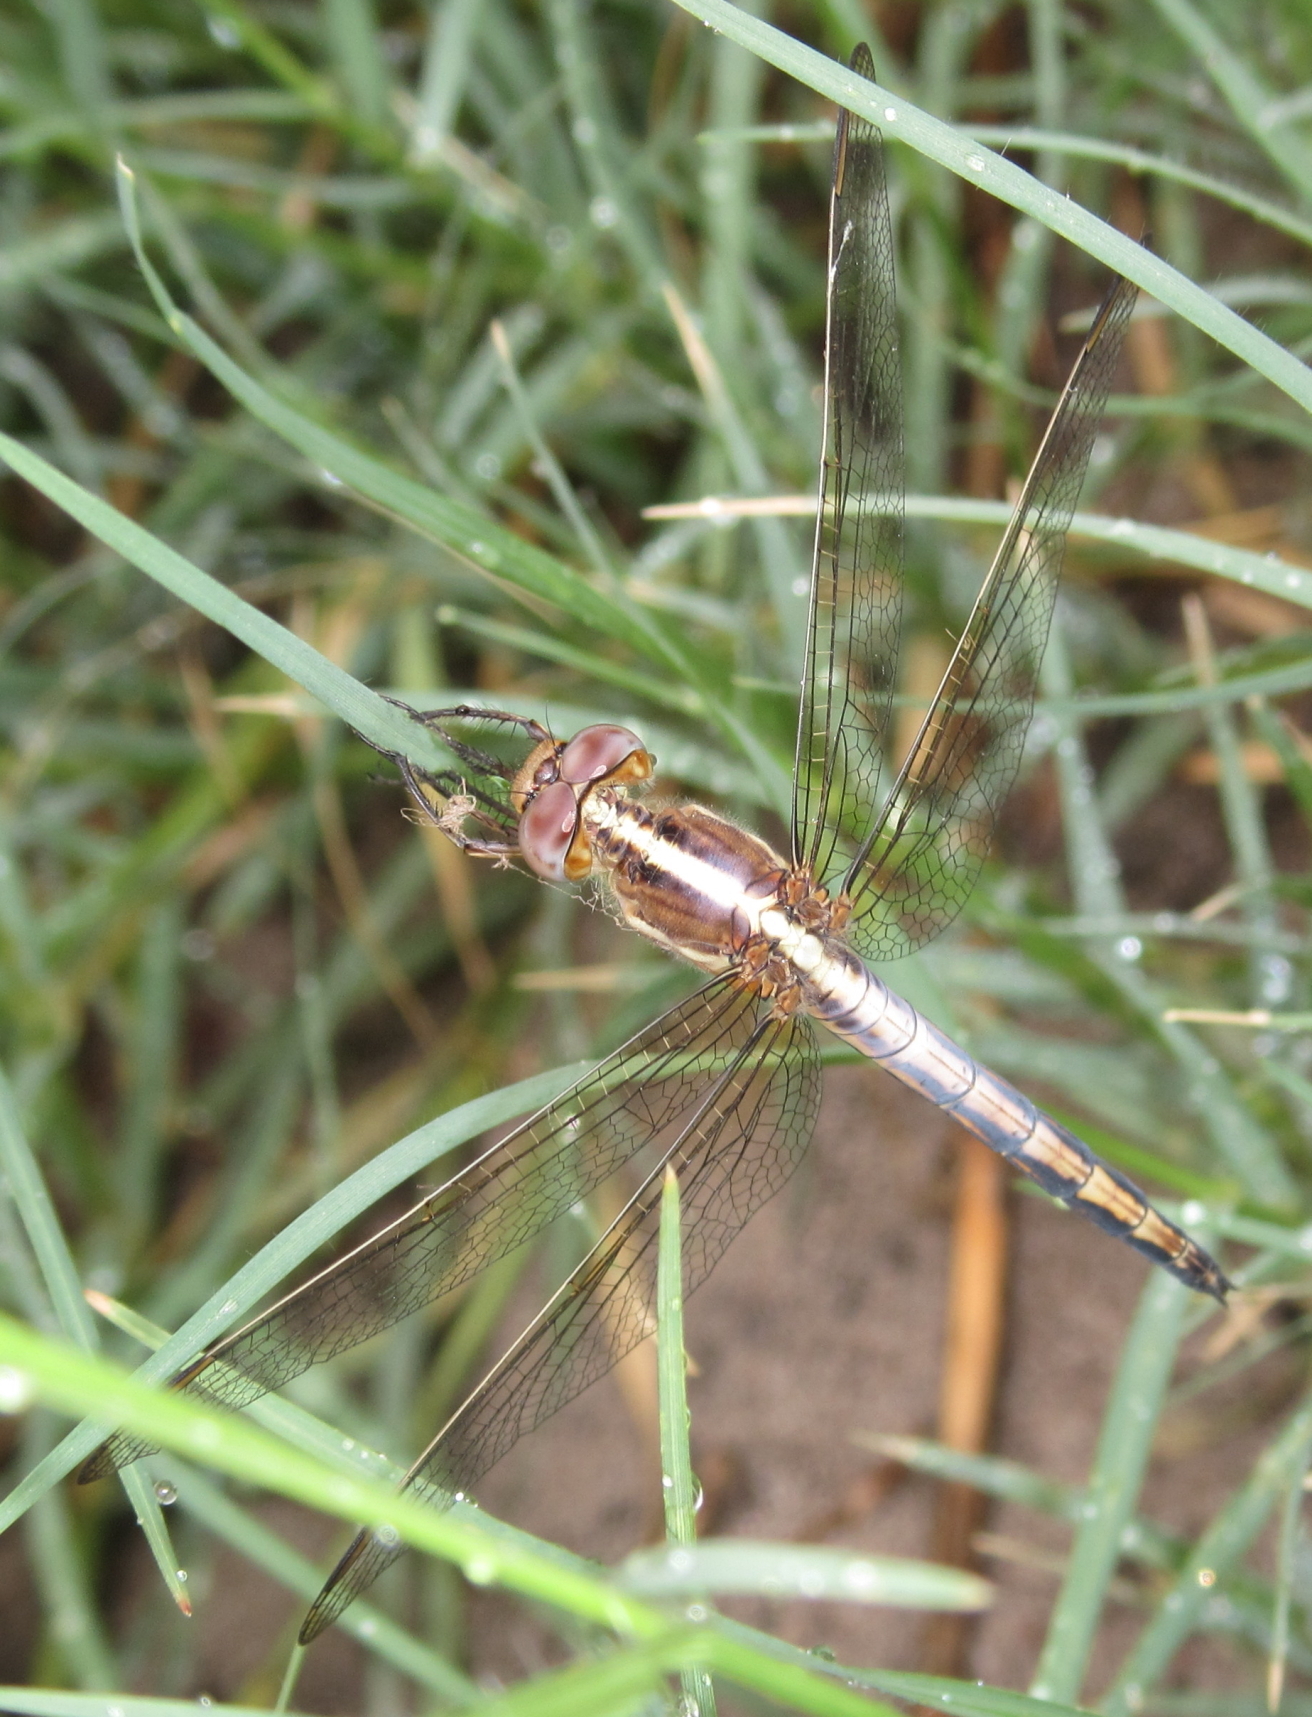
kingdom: Animalia
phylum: Arthropoda
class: Insecta
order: Odonata
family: Libellulidae
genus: Nesciothemis
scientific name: Nesciothemis farinosa
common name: Eastern blacktail
